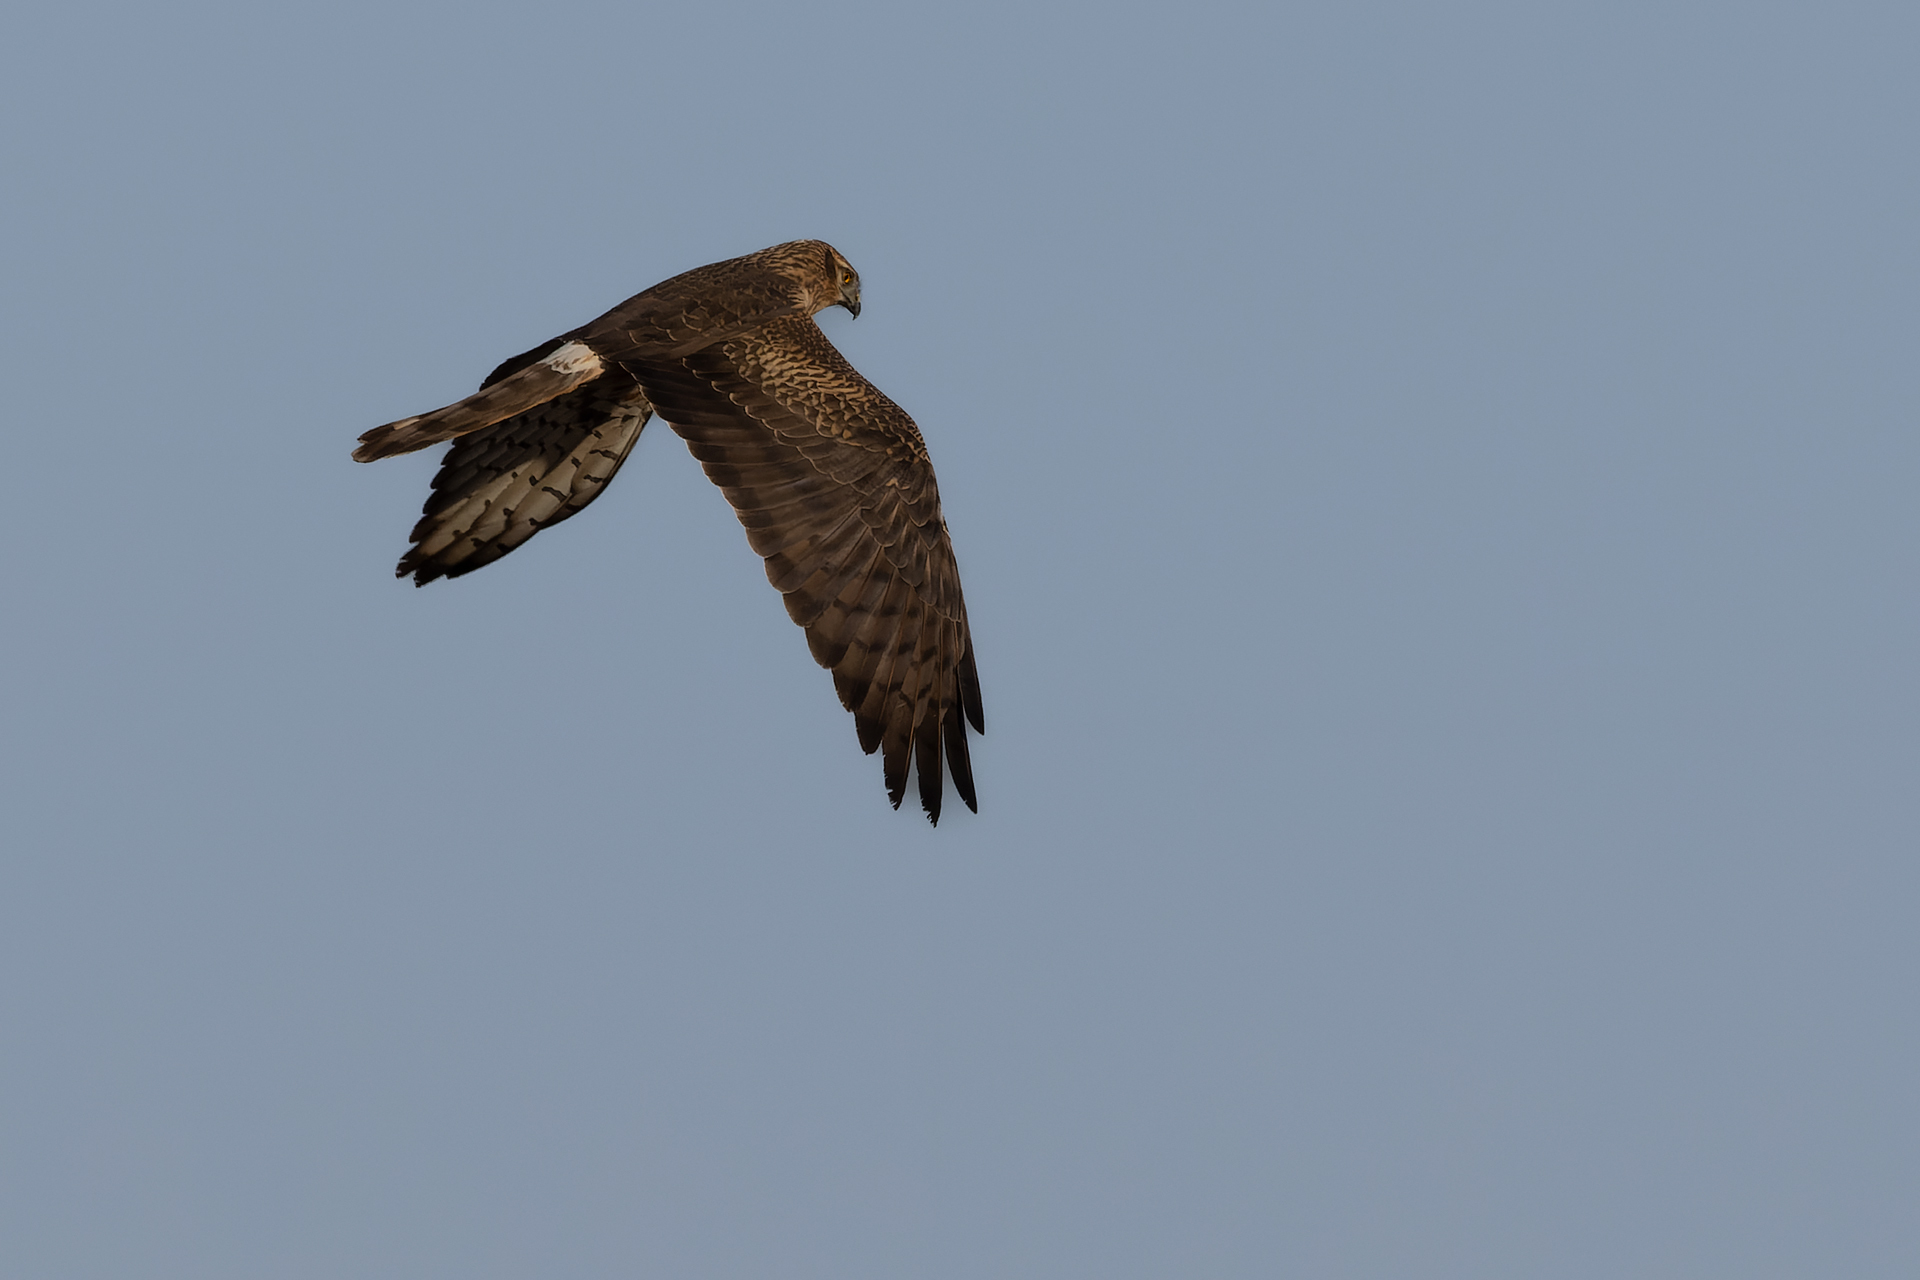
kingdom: Animalia
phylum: Chordata
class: Aves
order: Accipitriformes
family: Accipitridae
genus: Circus
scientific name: Circus pygargus
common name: Montagu's harrier
